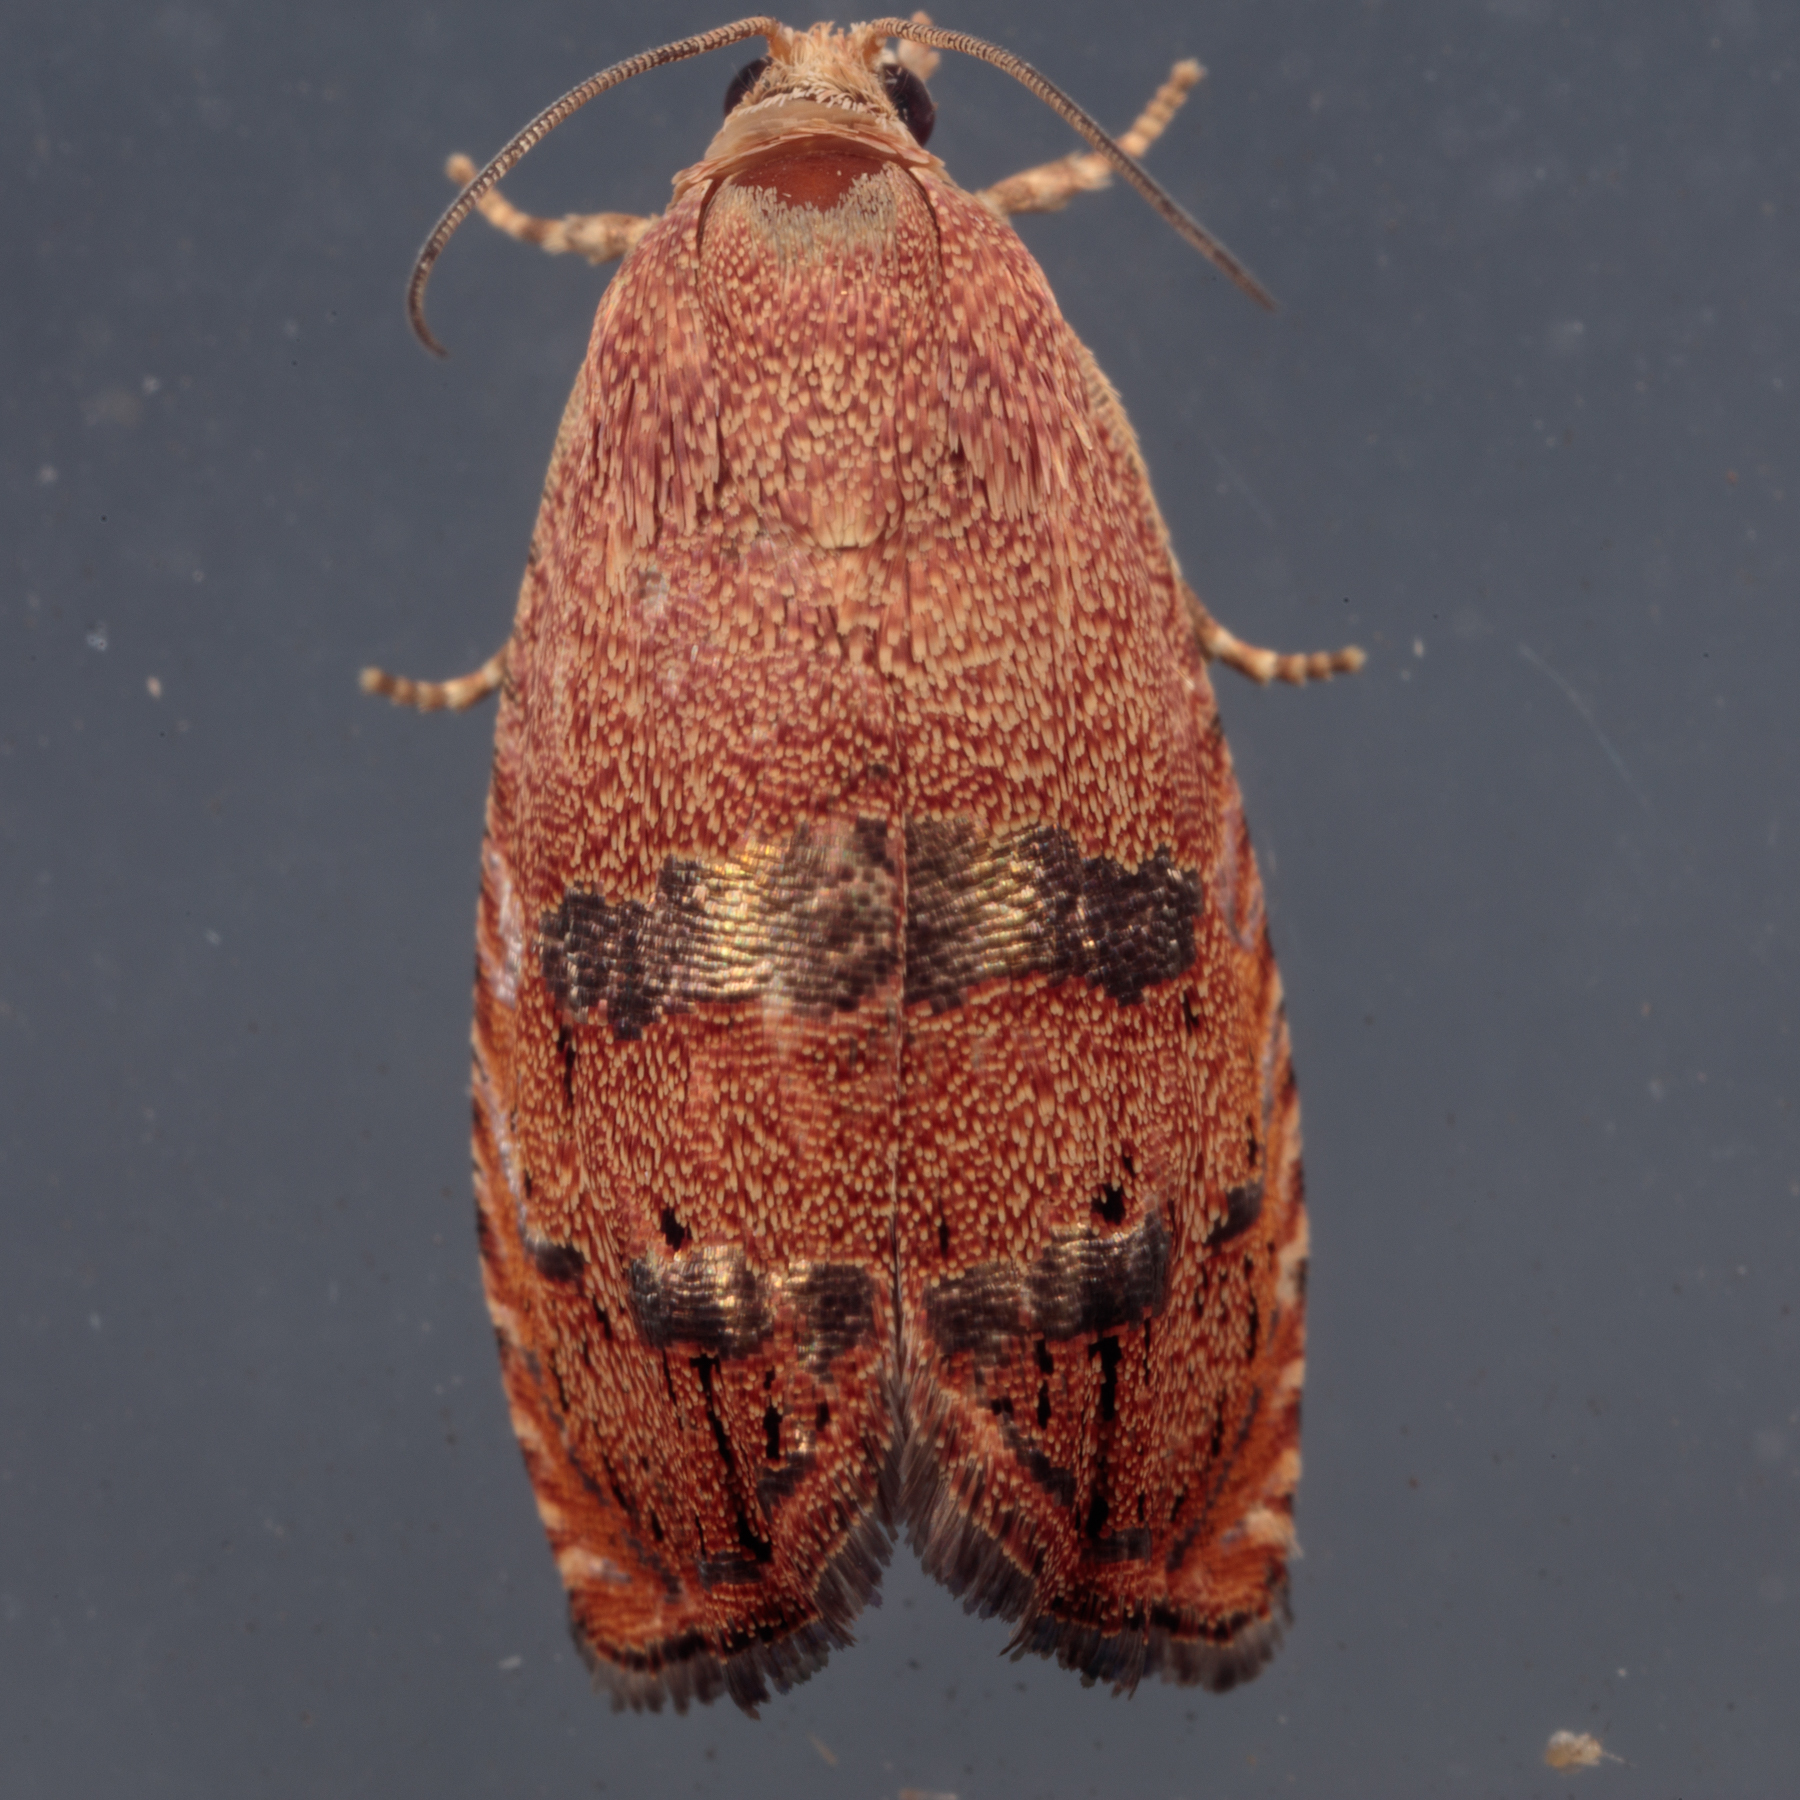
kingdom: Animalia
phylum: Arthropoda
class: Insecta
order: Lepidoptera
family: Tortricidae
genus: Cydia
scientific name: Cydia latiferreana
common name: Filbertworm moth
